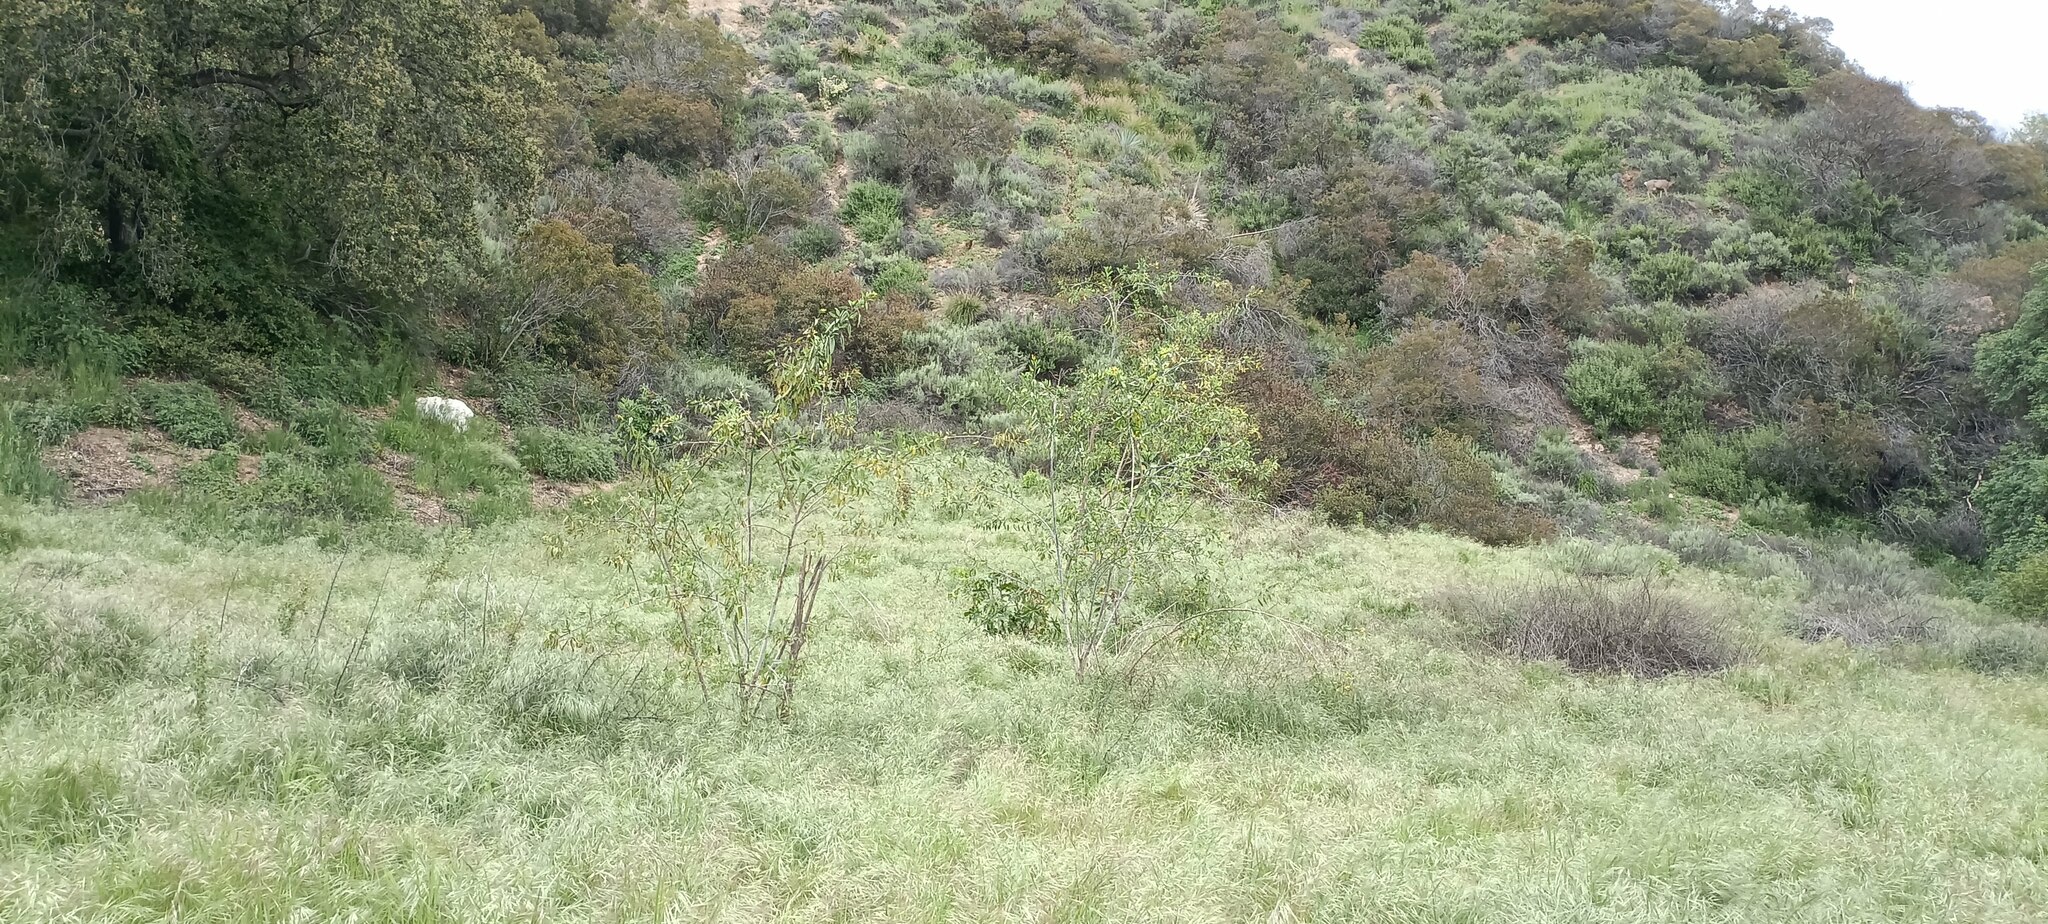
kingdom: Plantae
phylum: Tracheophyta
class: Magnoliopsida
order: Solanales
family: Solanaceae
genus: Nicotiana
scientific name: Nicotiana glauca
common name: Tree tobacco
